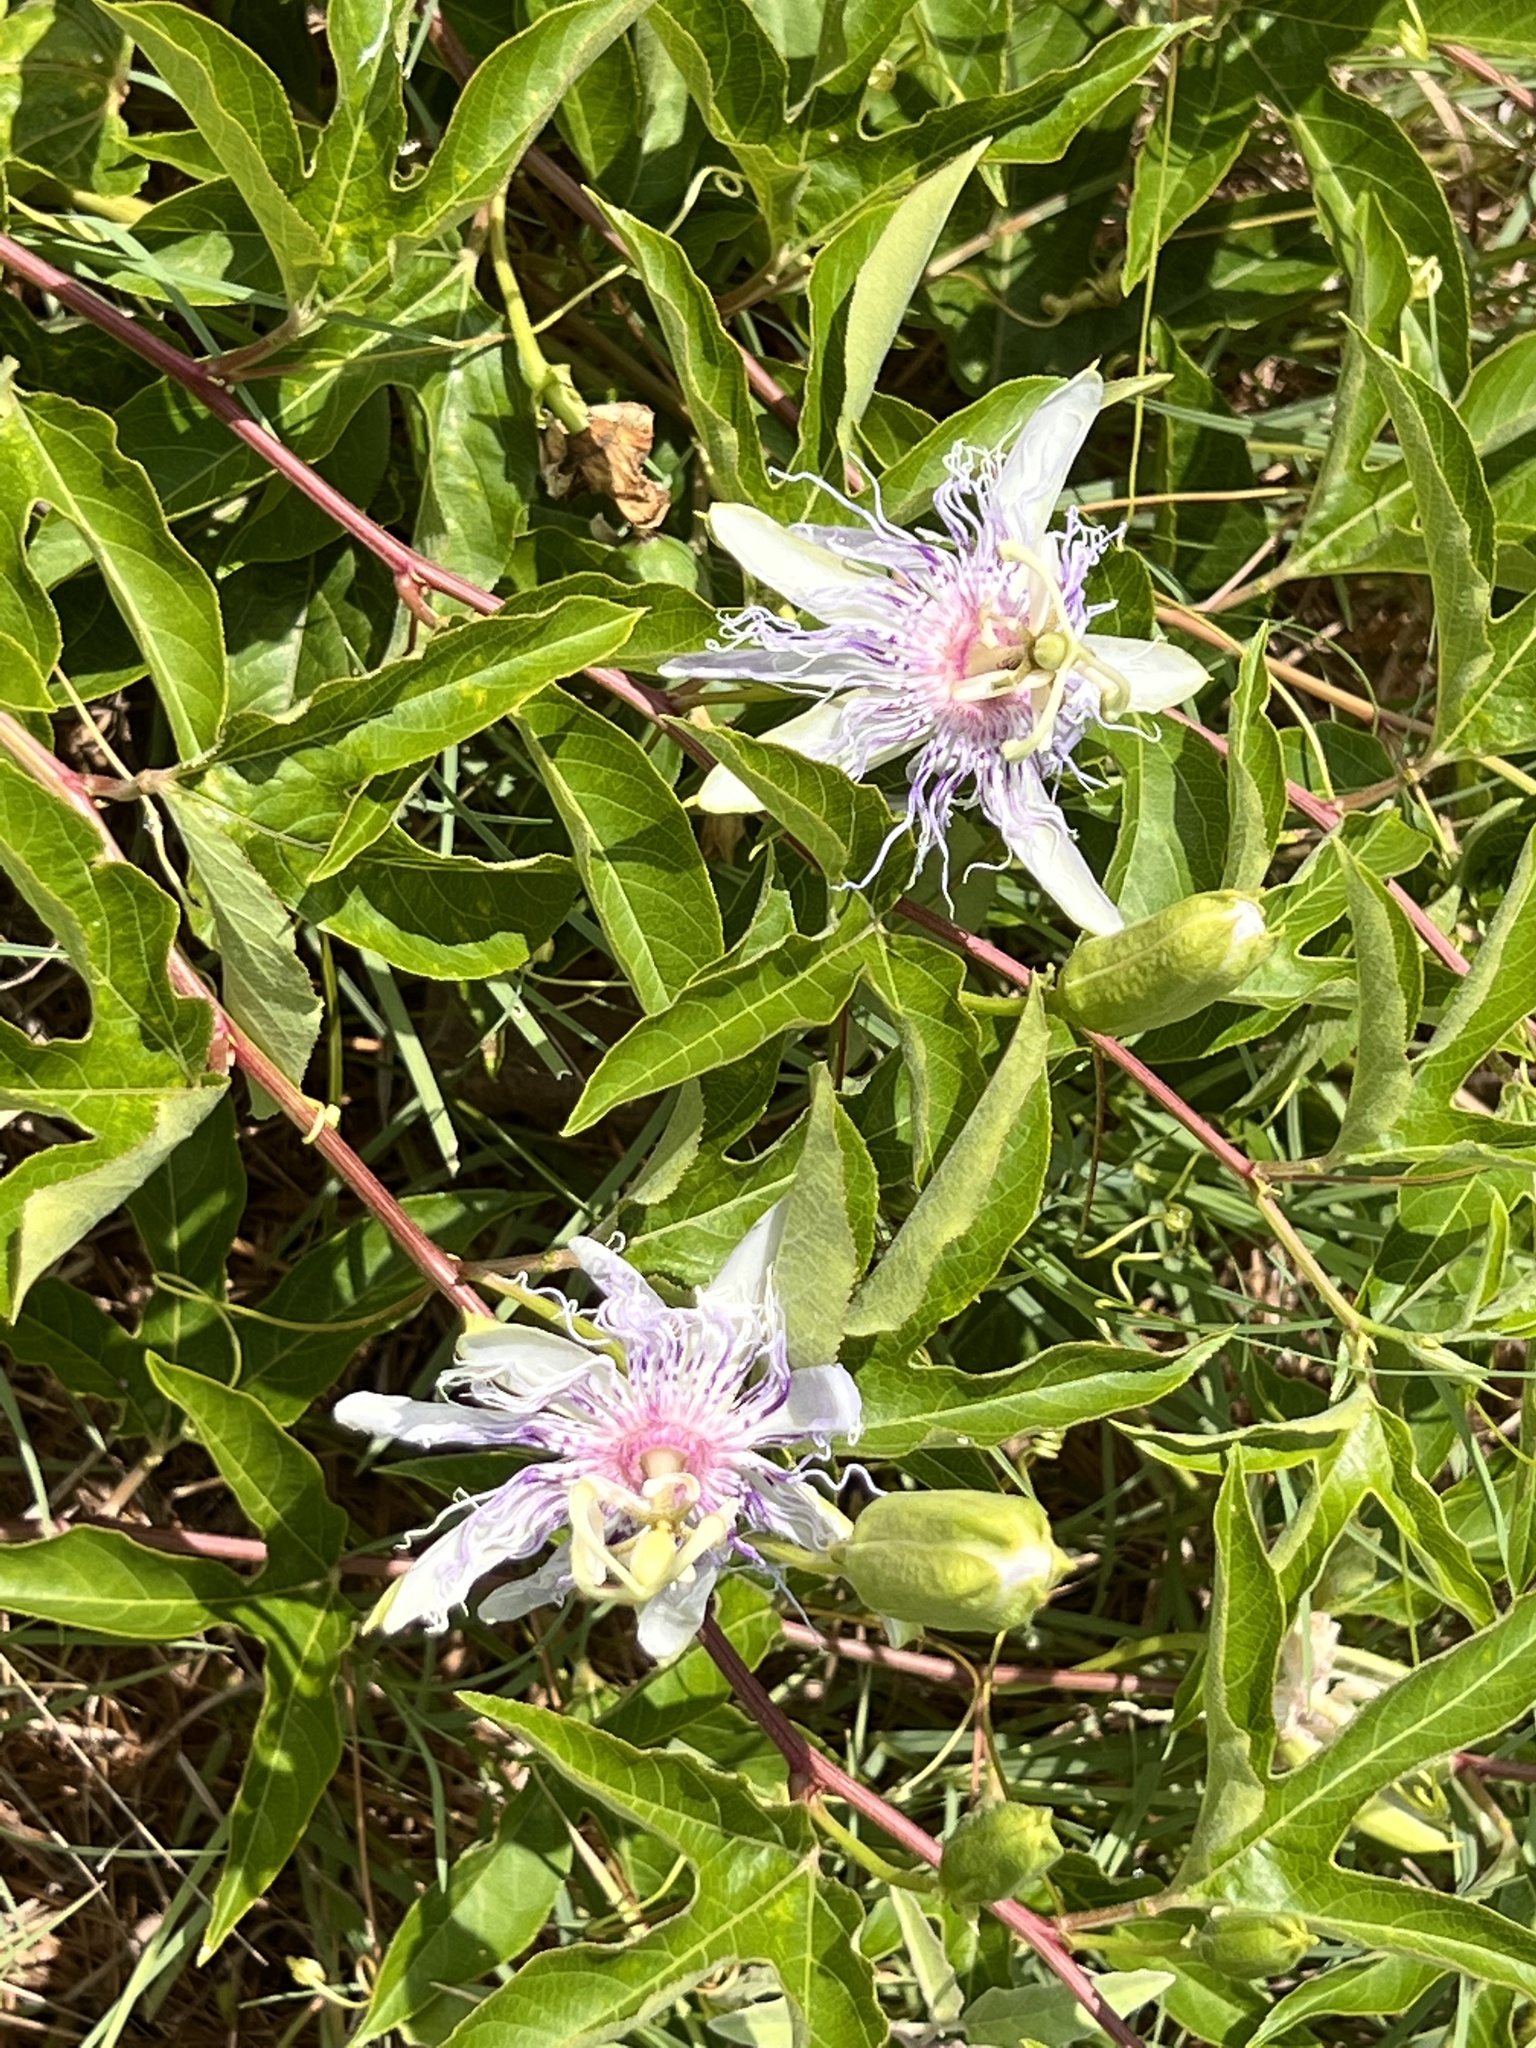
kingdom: Plantae
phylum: Tracheophyta
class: Magnoliopsida
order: Malpighiales
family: Passifloraceae
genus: Passiflora
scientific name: Passiflora incarnata
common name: Apricot-vine
